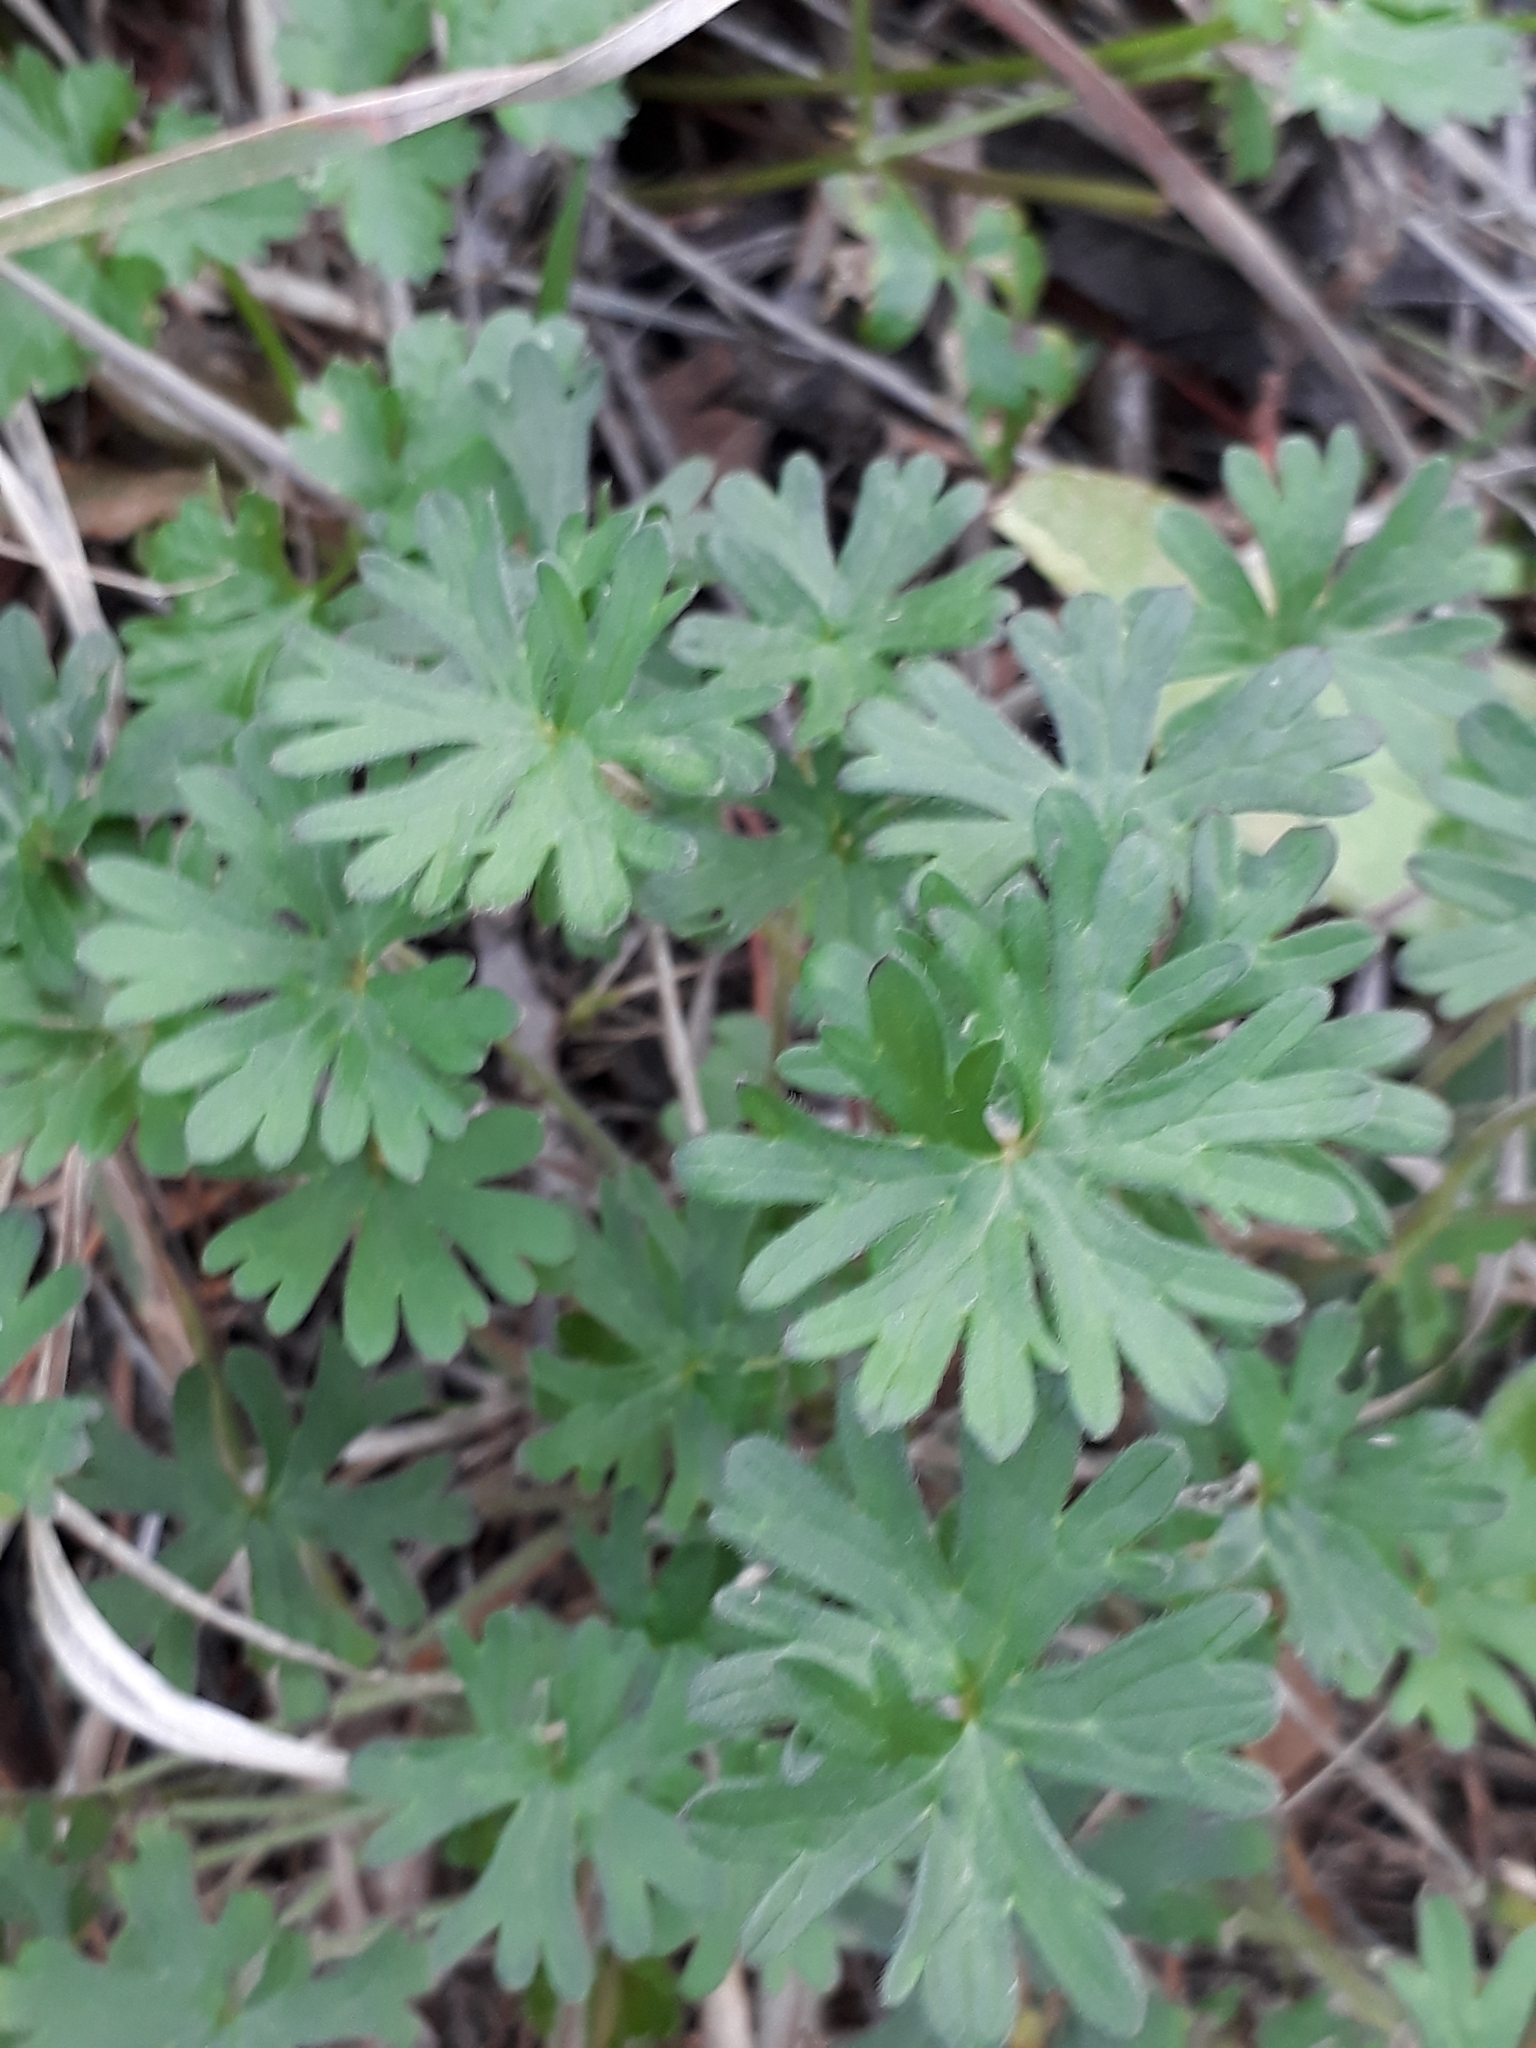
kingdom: Plantae
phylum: Tracheophyta
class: Magnoliopsida
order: Geraniales
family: Geraniaceae
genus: Geranium
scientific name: Geranium molle
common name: Dove's-foot crane's-bill
